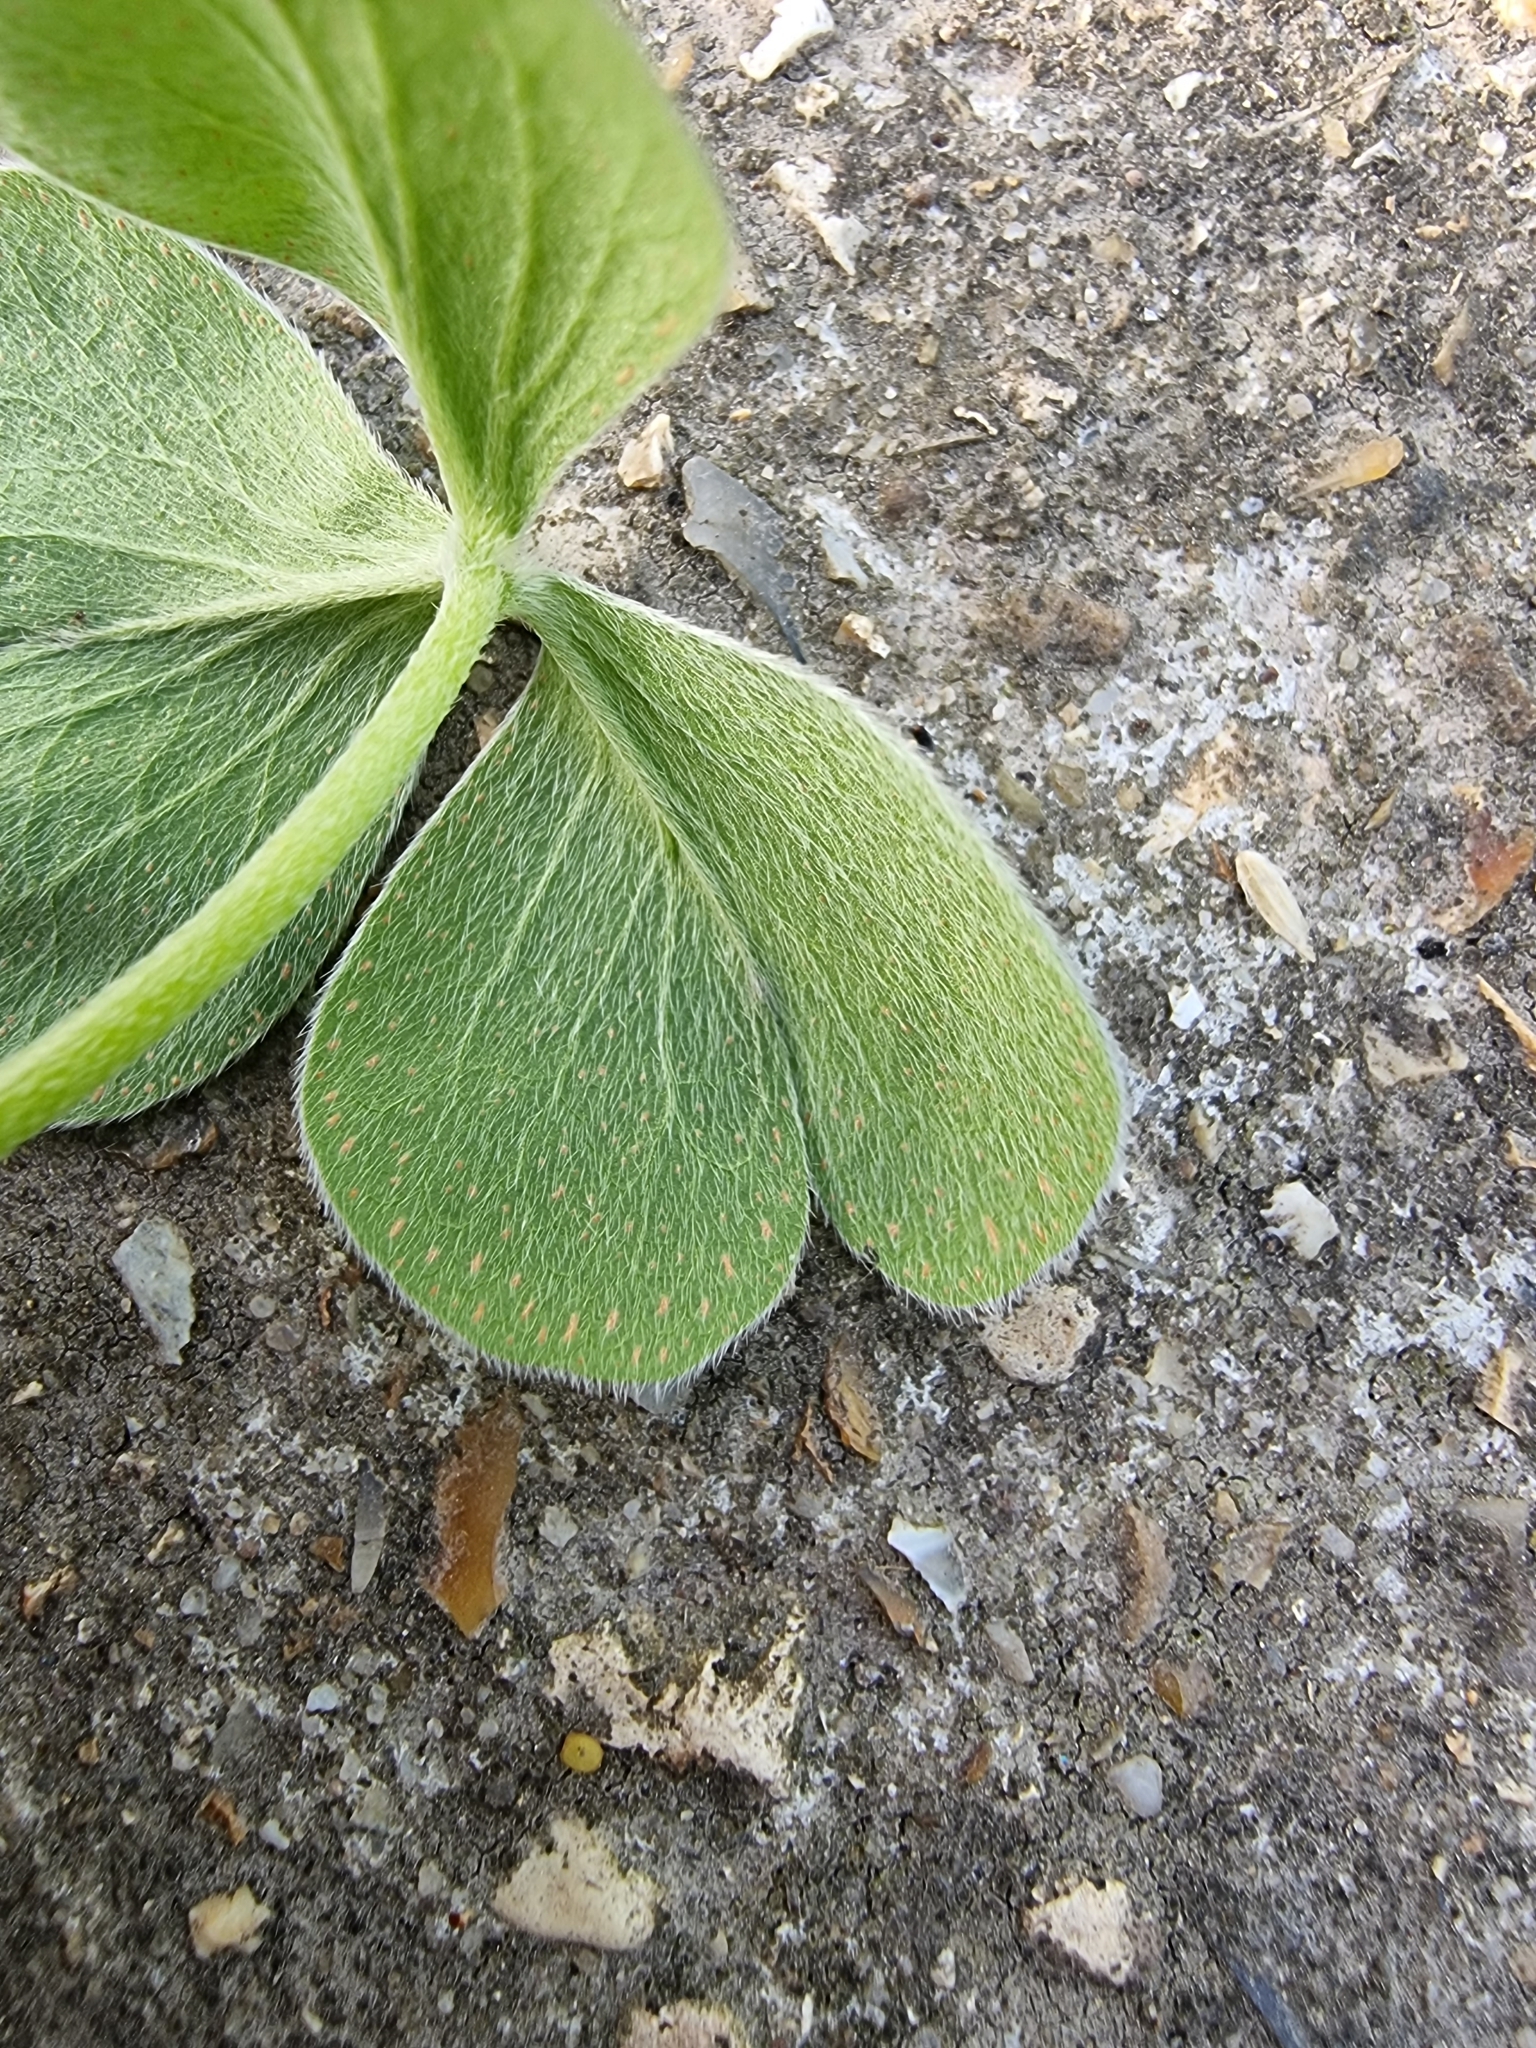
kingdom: Plantae
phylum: Tracheophyta
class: Magnoliopsida
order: Oxalidales
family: Oxalidaceae
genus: Oxalis
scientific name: Oxalis articulata
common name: Pink-sorrel
